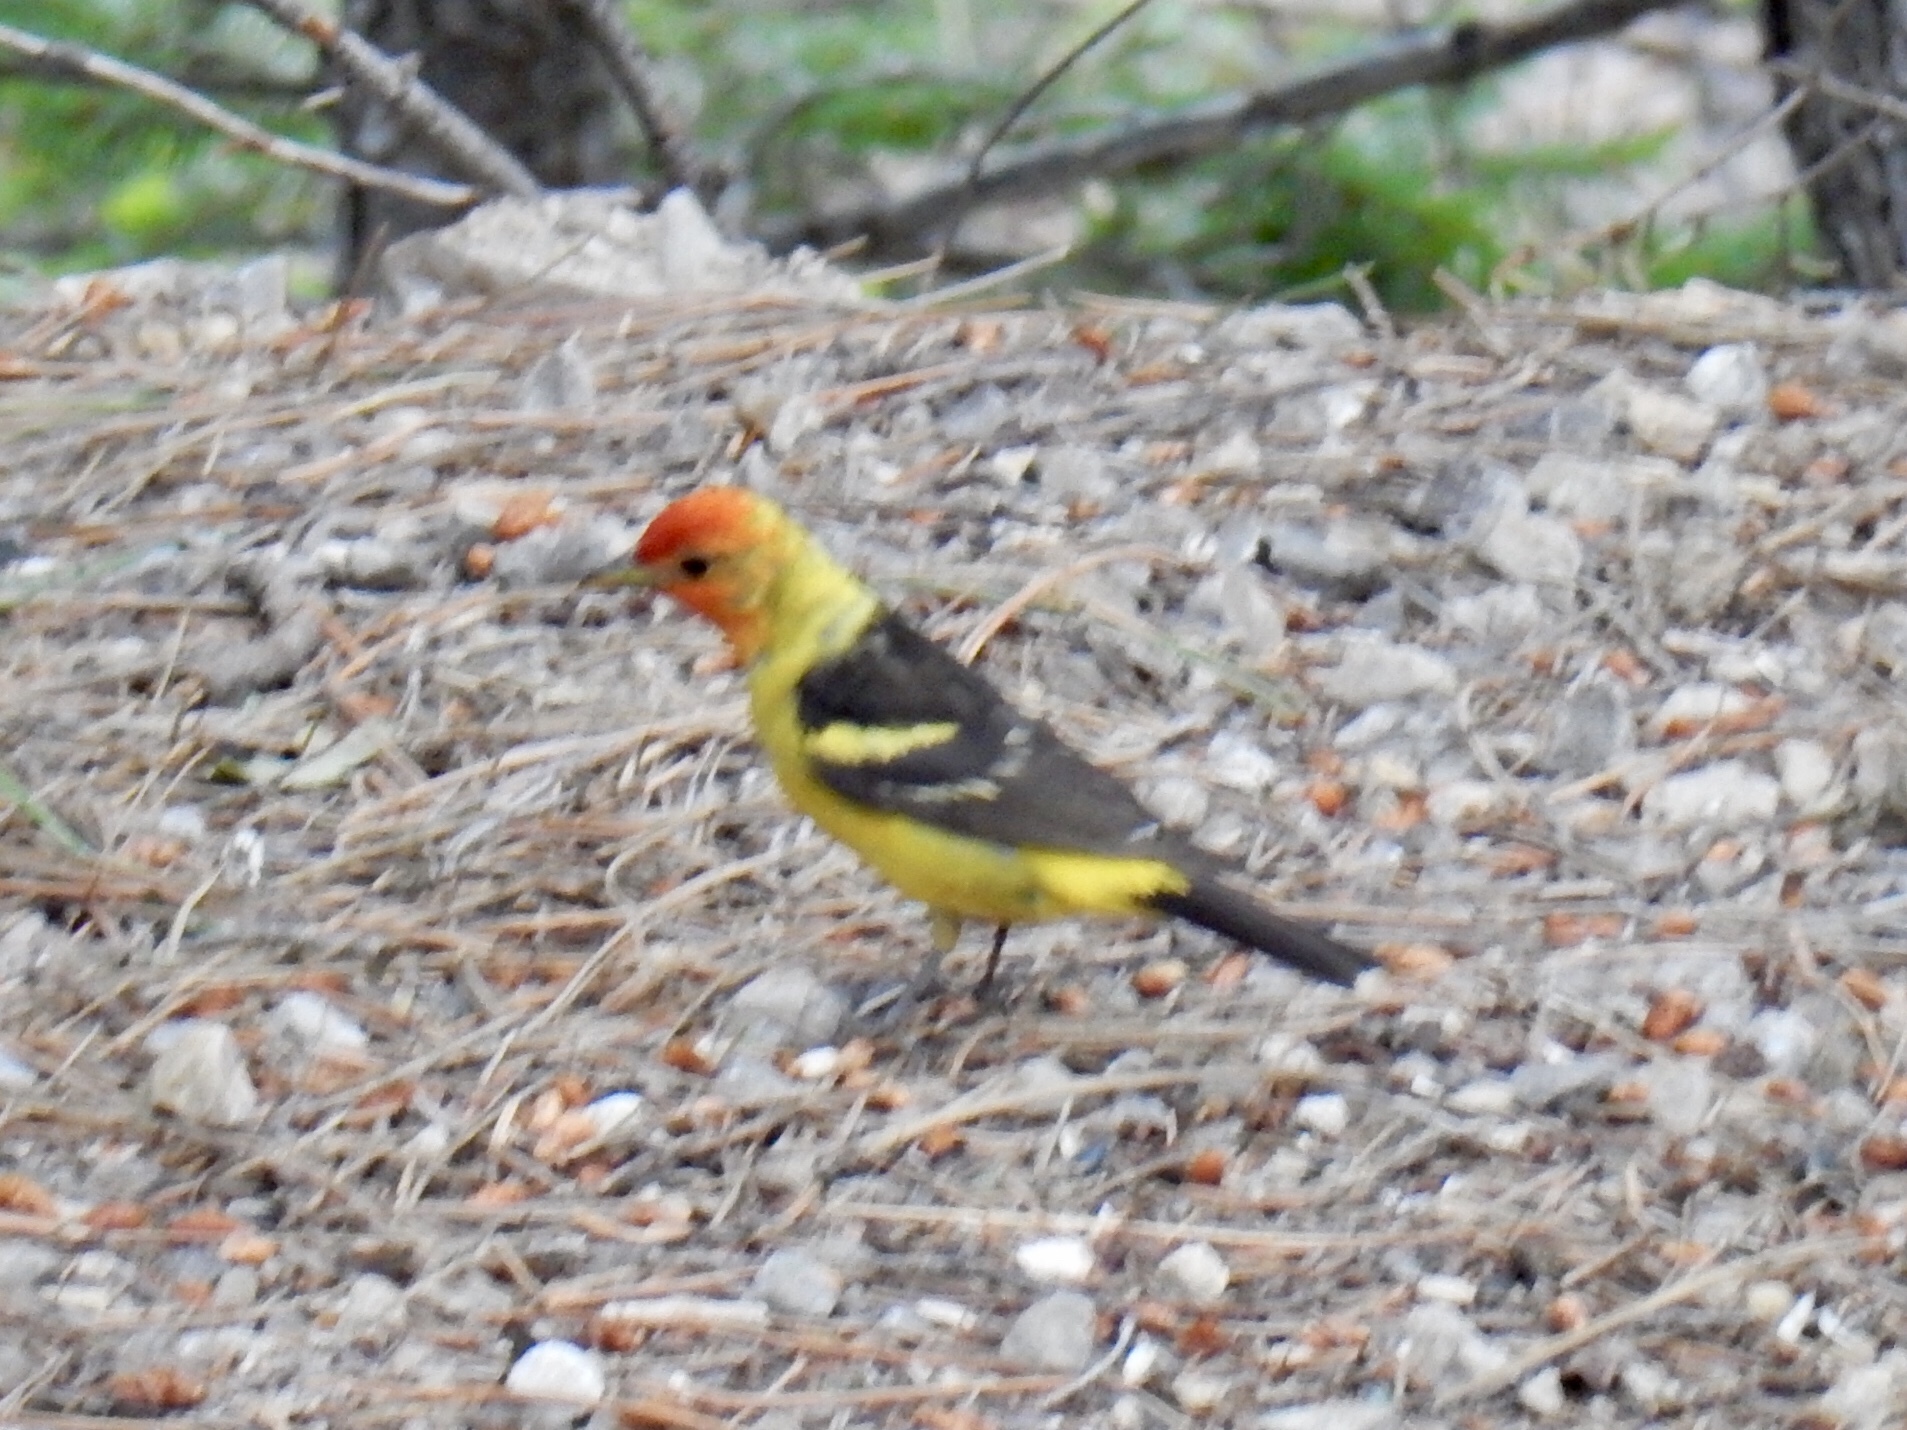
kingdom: Animalia
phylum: Chordata
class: Aves
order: Passeriformes
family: Cardinalidae
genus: Piranga
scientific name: Piranga ludoviciana
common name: Western tanager
